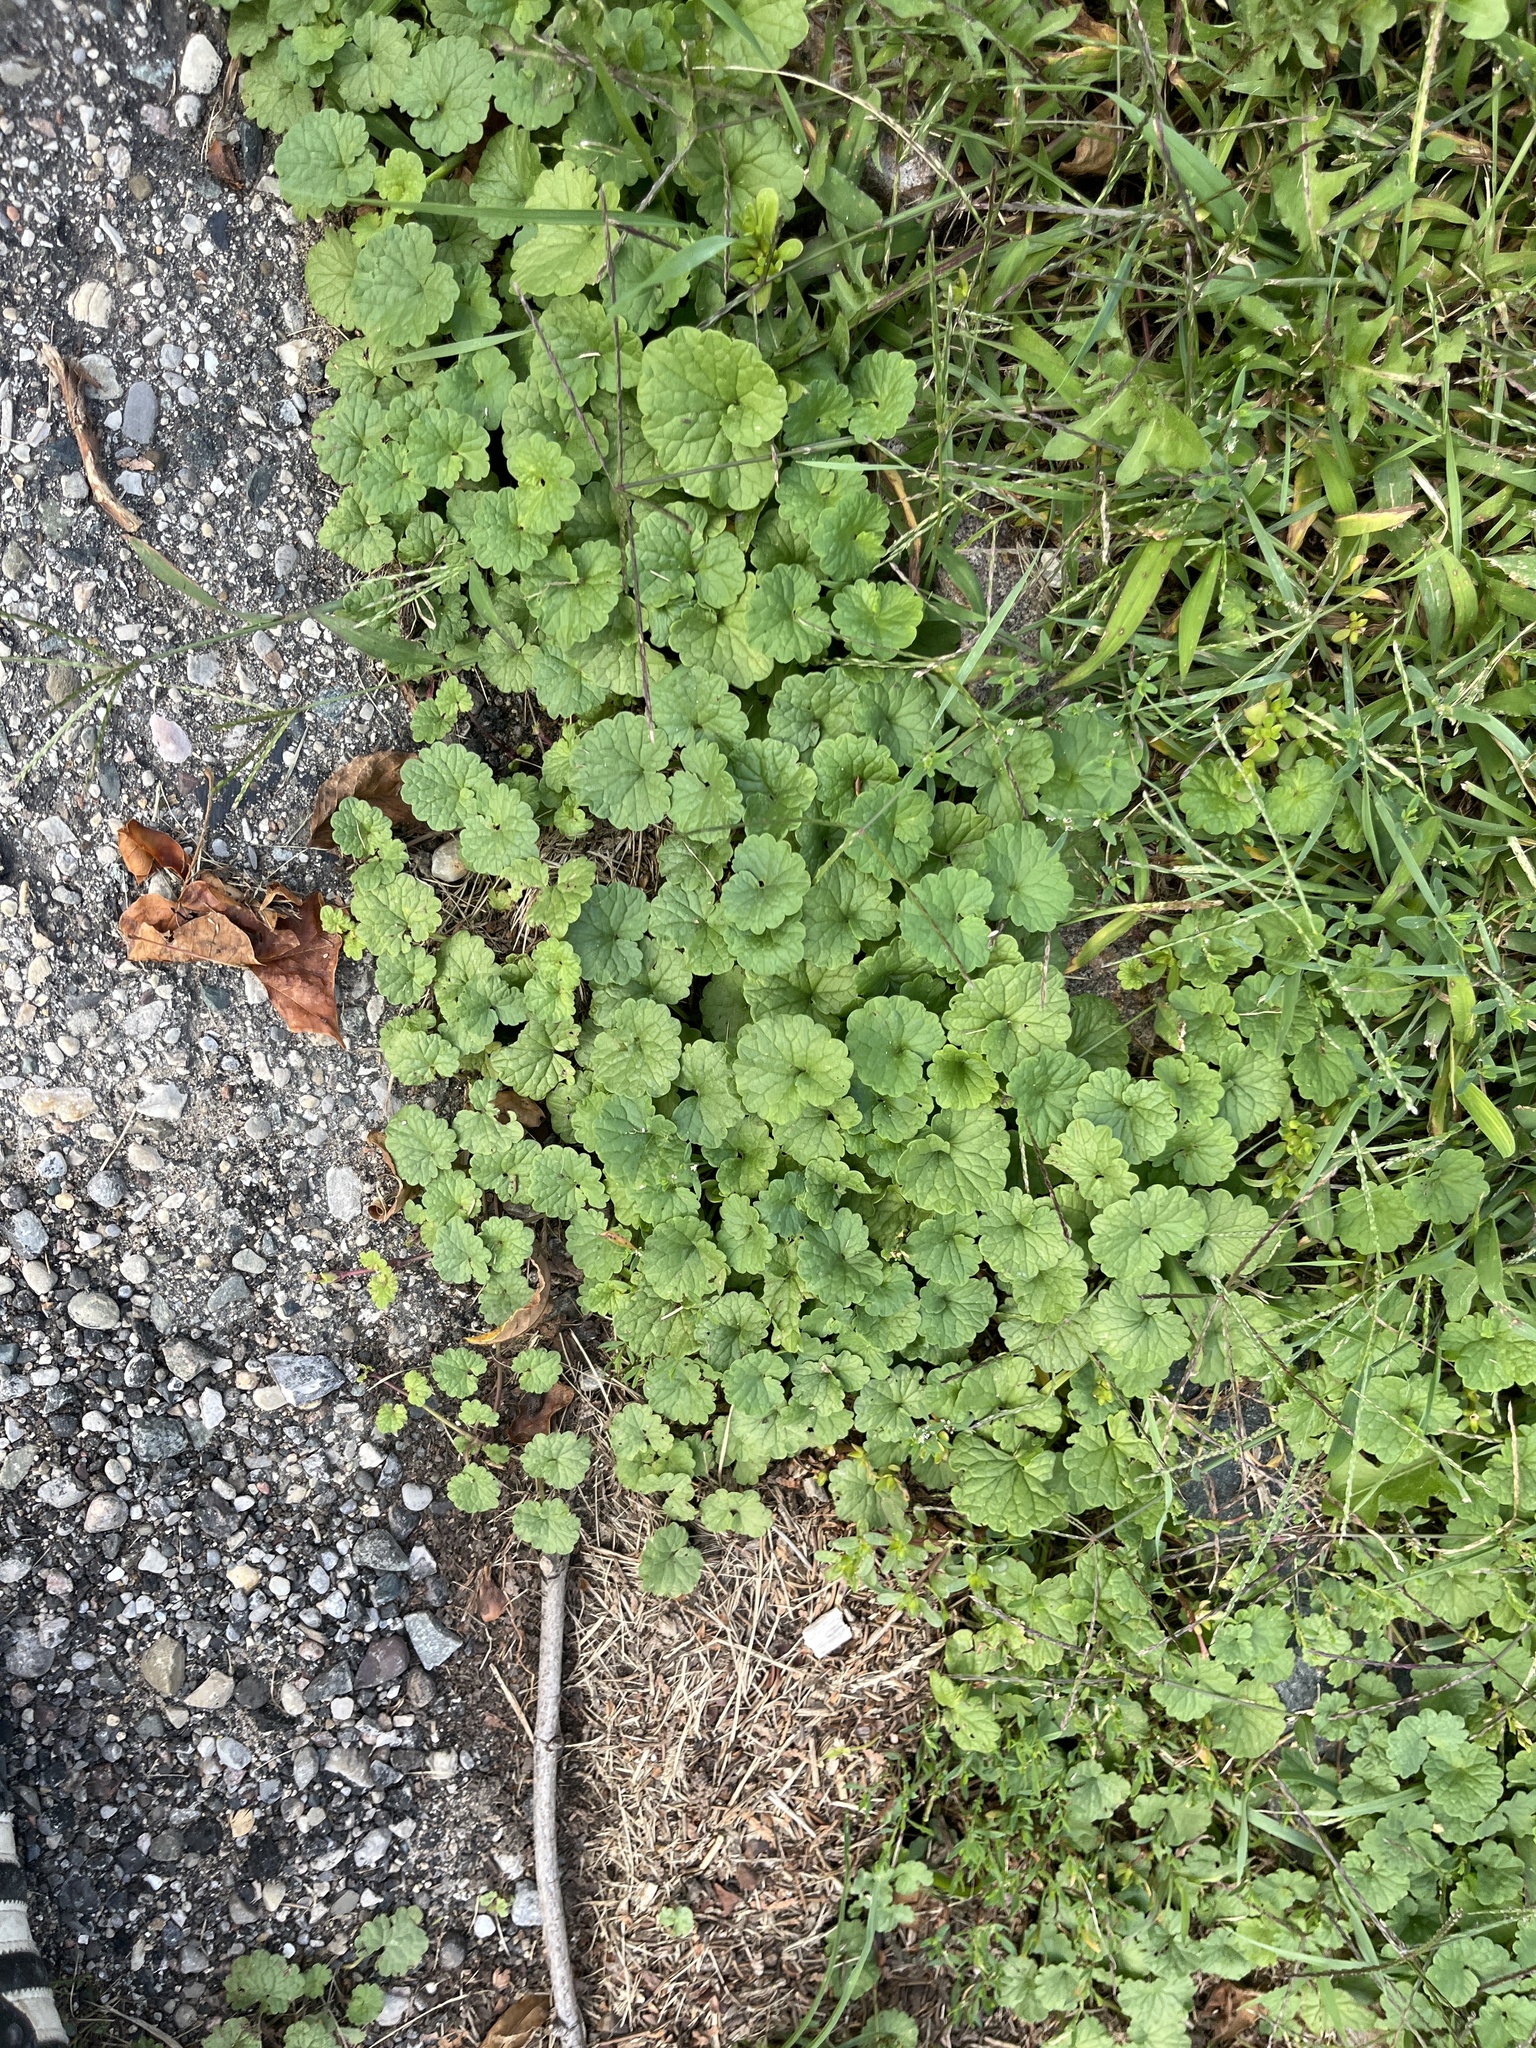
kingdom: Plantae
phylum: Tracheophyta
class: Magnoliopsida
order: Lamiales
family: Lamiaceae
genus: Glechoma
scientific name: Glechoma hederacea
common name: Ground ivy
